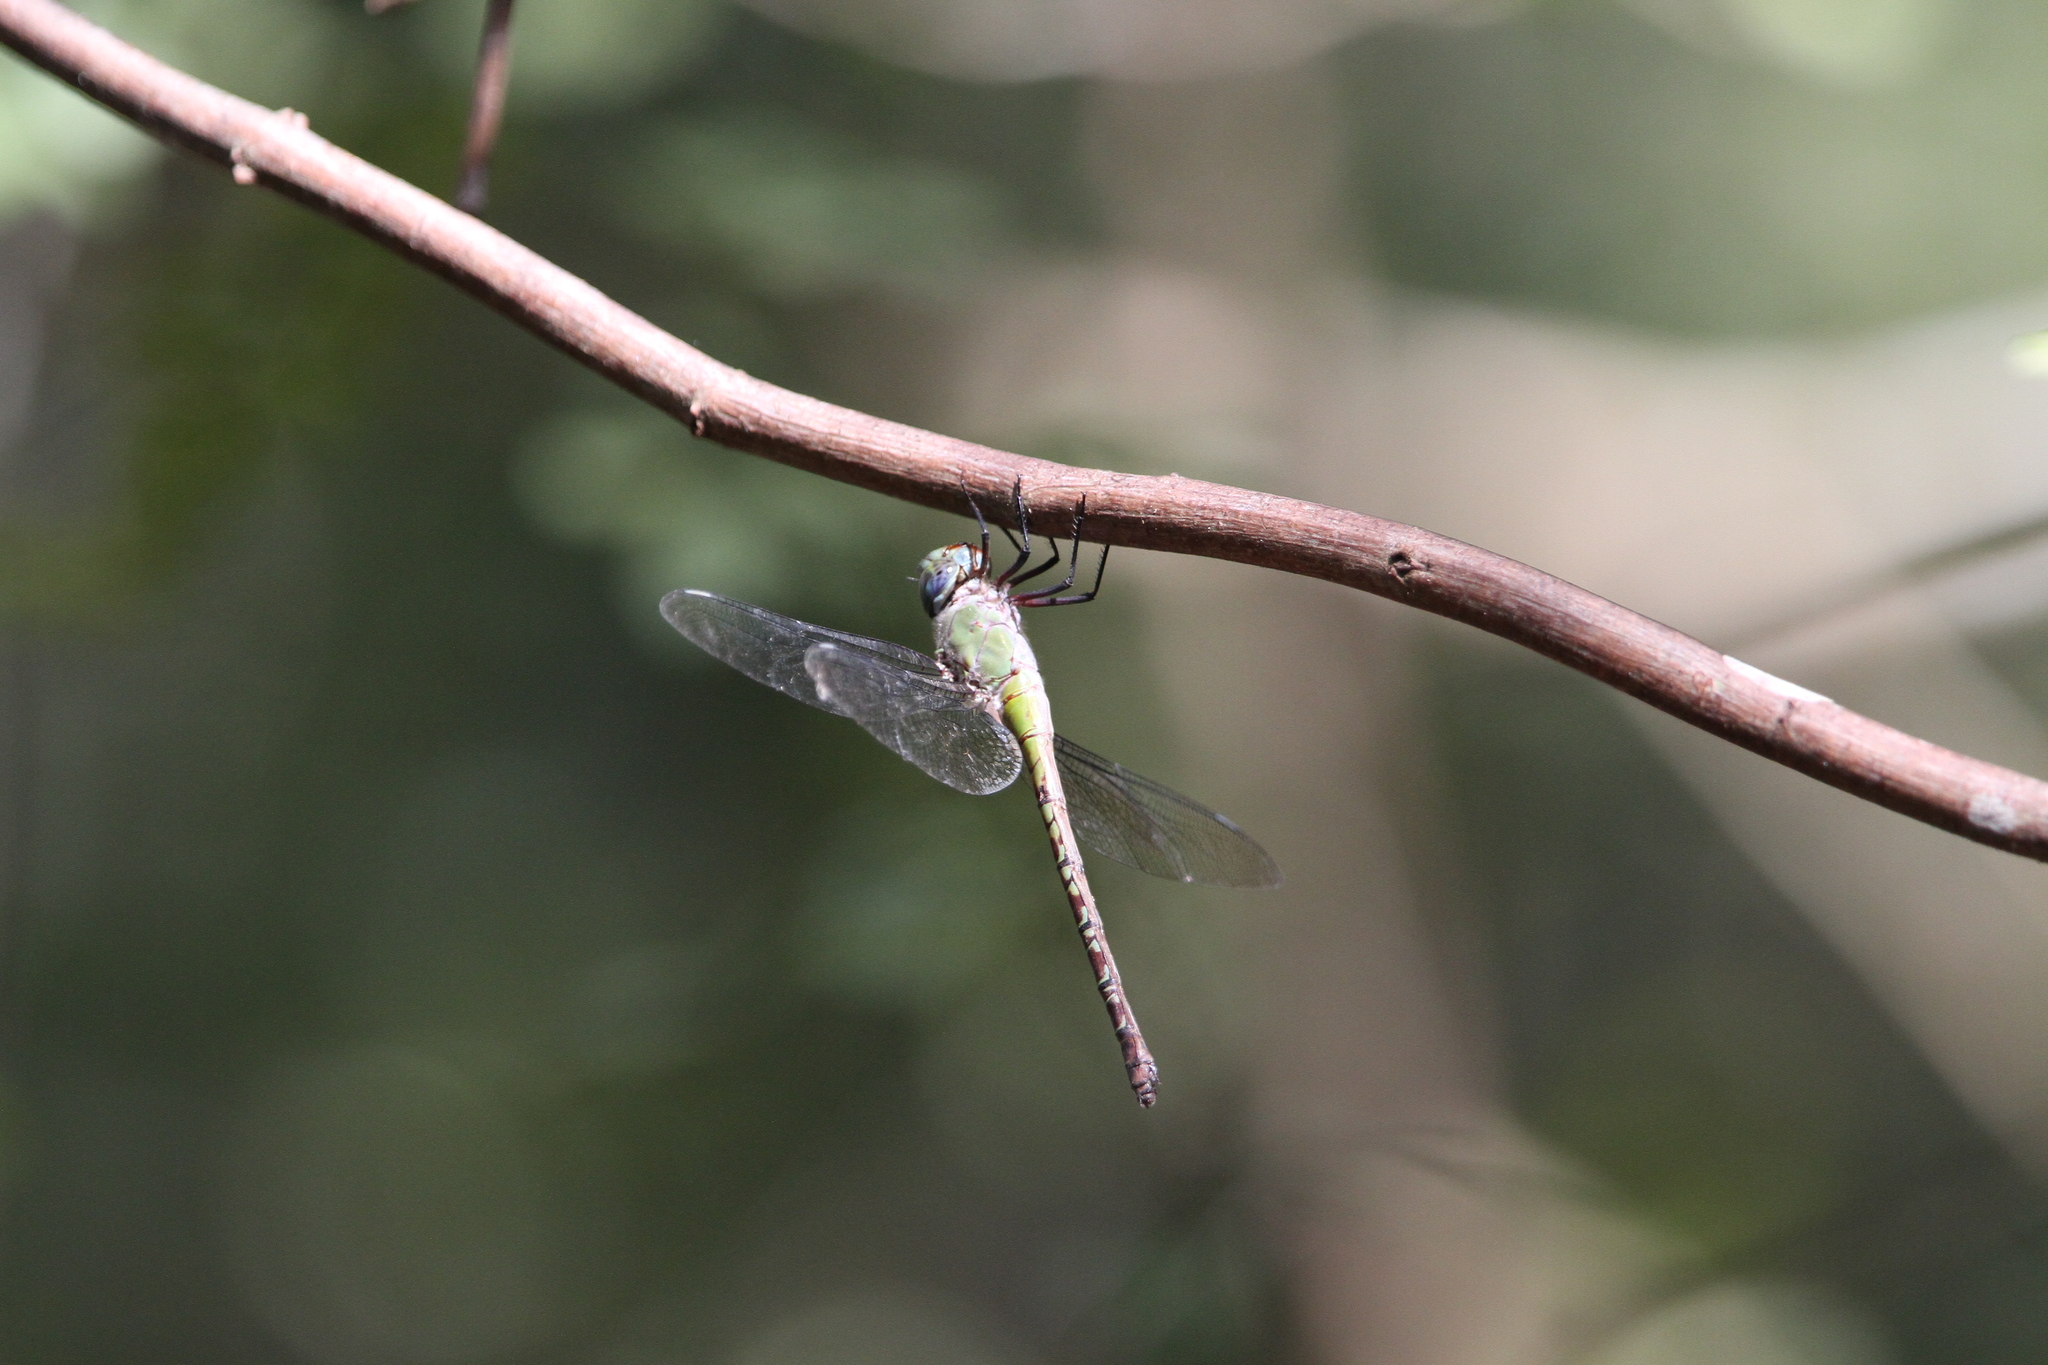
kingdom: Animalia
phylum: Arthropoda
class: Insecta
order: Odonata
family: Aeshnidae
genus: Coryphaeschna
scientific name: Coryphaeschna viriditas
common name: Mangrove darner
